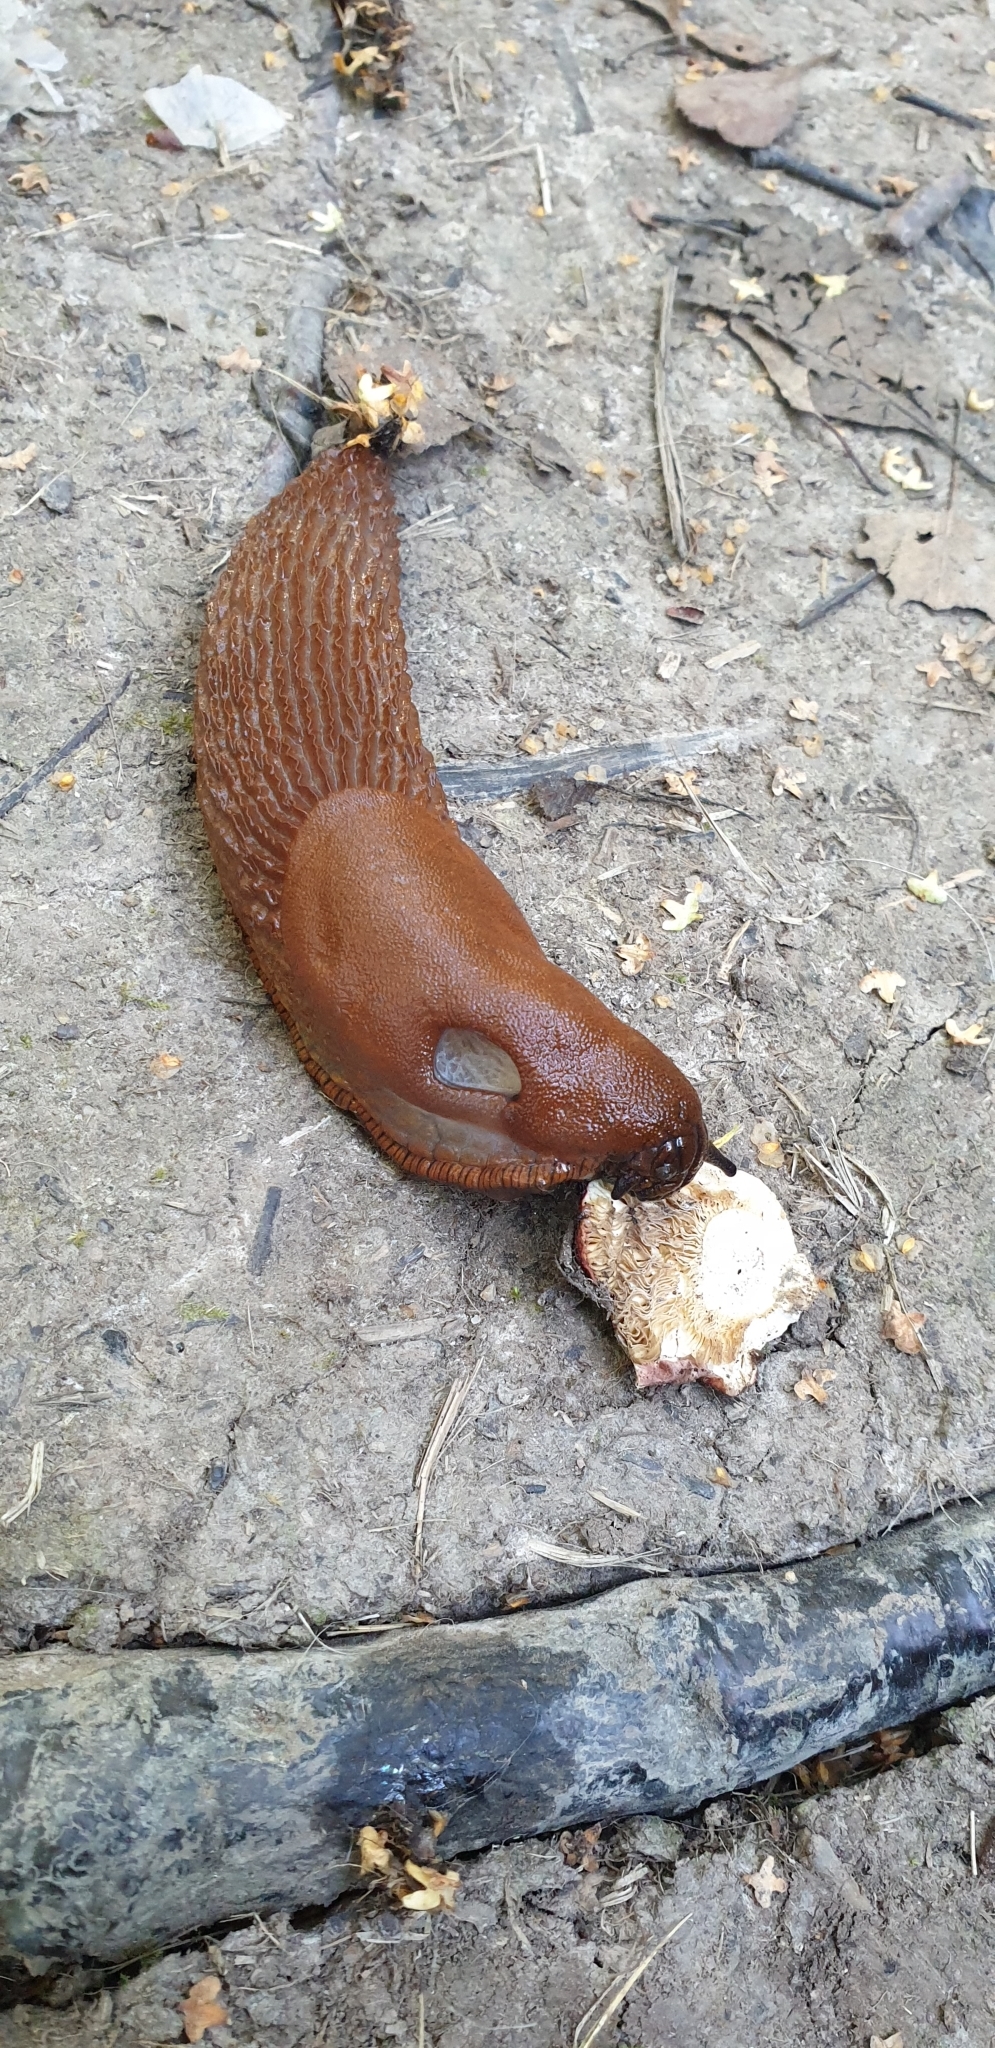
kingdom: Animalia
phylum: Mollusca
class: Gastropoda
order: Stylommatophora
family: Arionidae
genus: Arion
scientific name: Arion vulgaris
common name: Lusitanian slug
